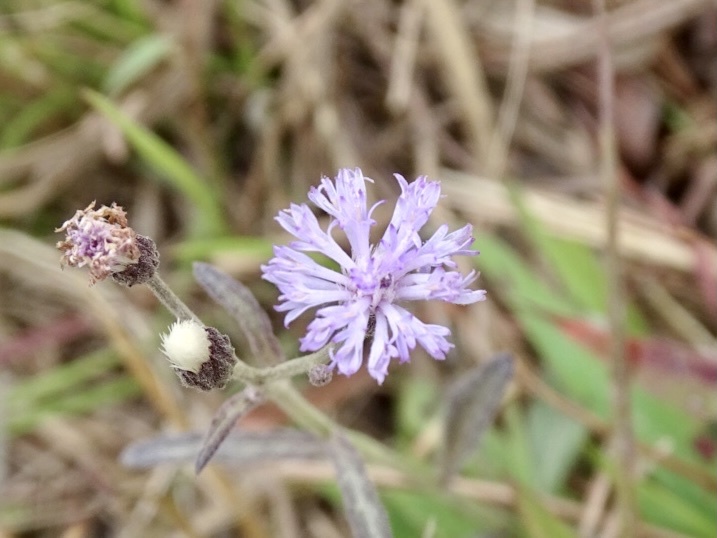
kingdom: Plantae
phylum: Tracheophyta
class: Magnoliopsida
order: Asterales
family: Asteraceae
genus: Cyanthillium
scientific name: Cyanthillium cinereum
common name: Little ironweed
